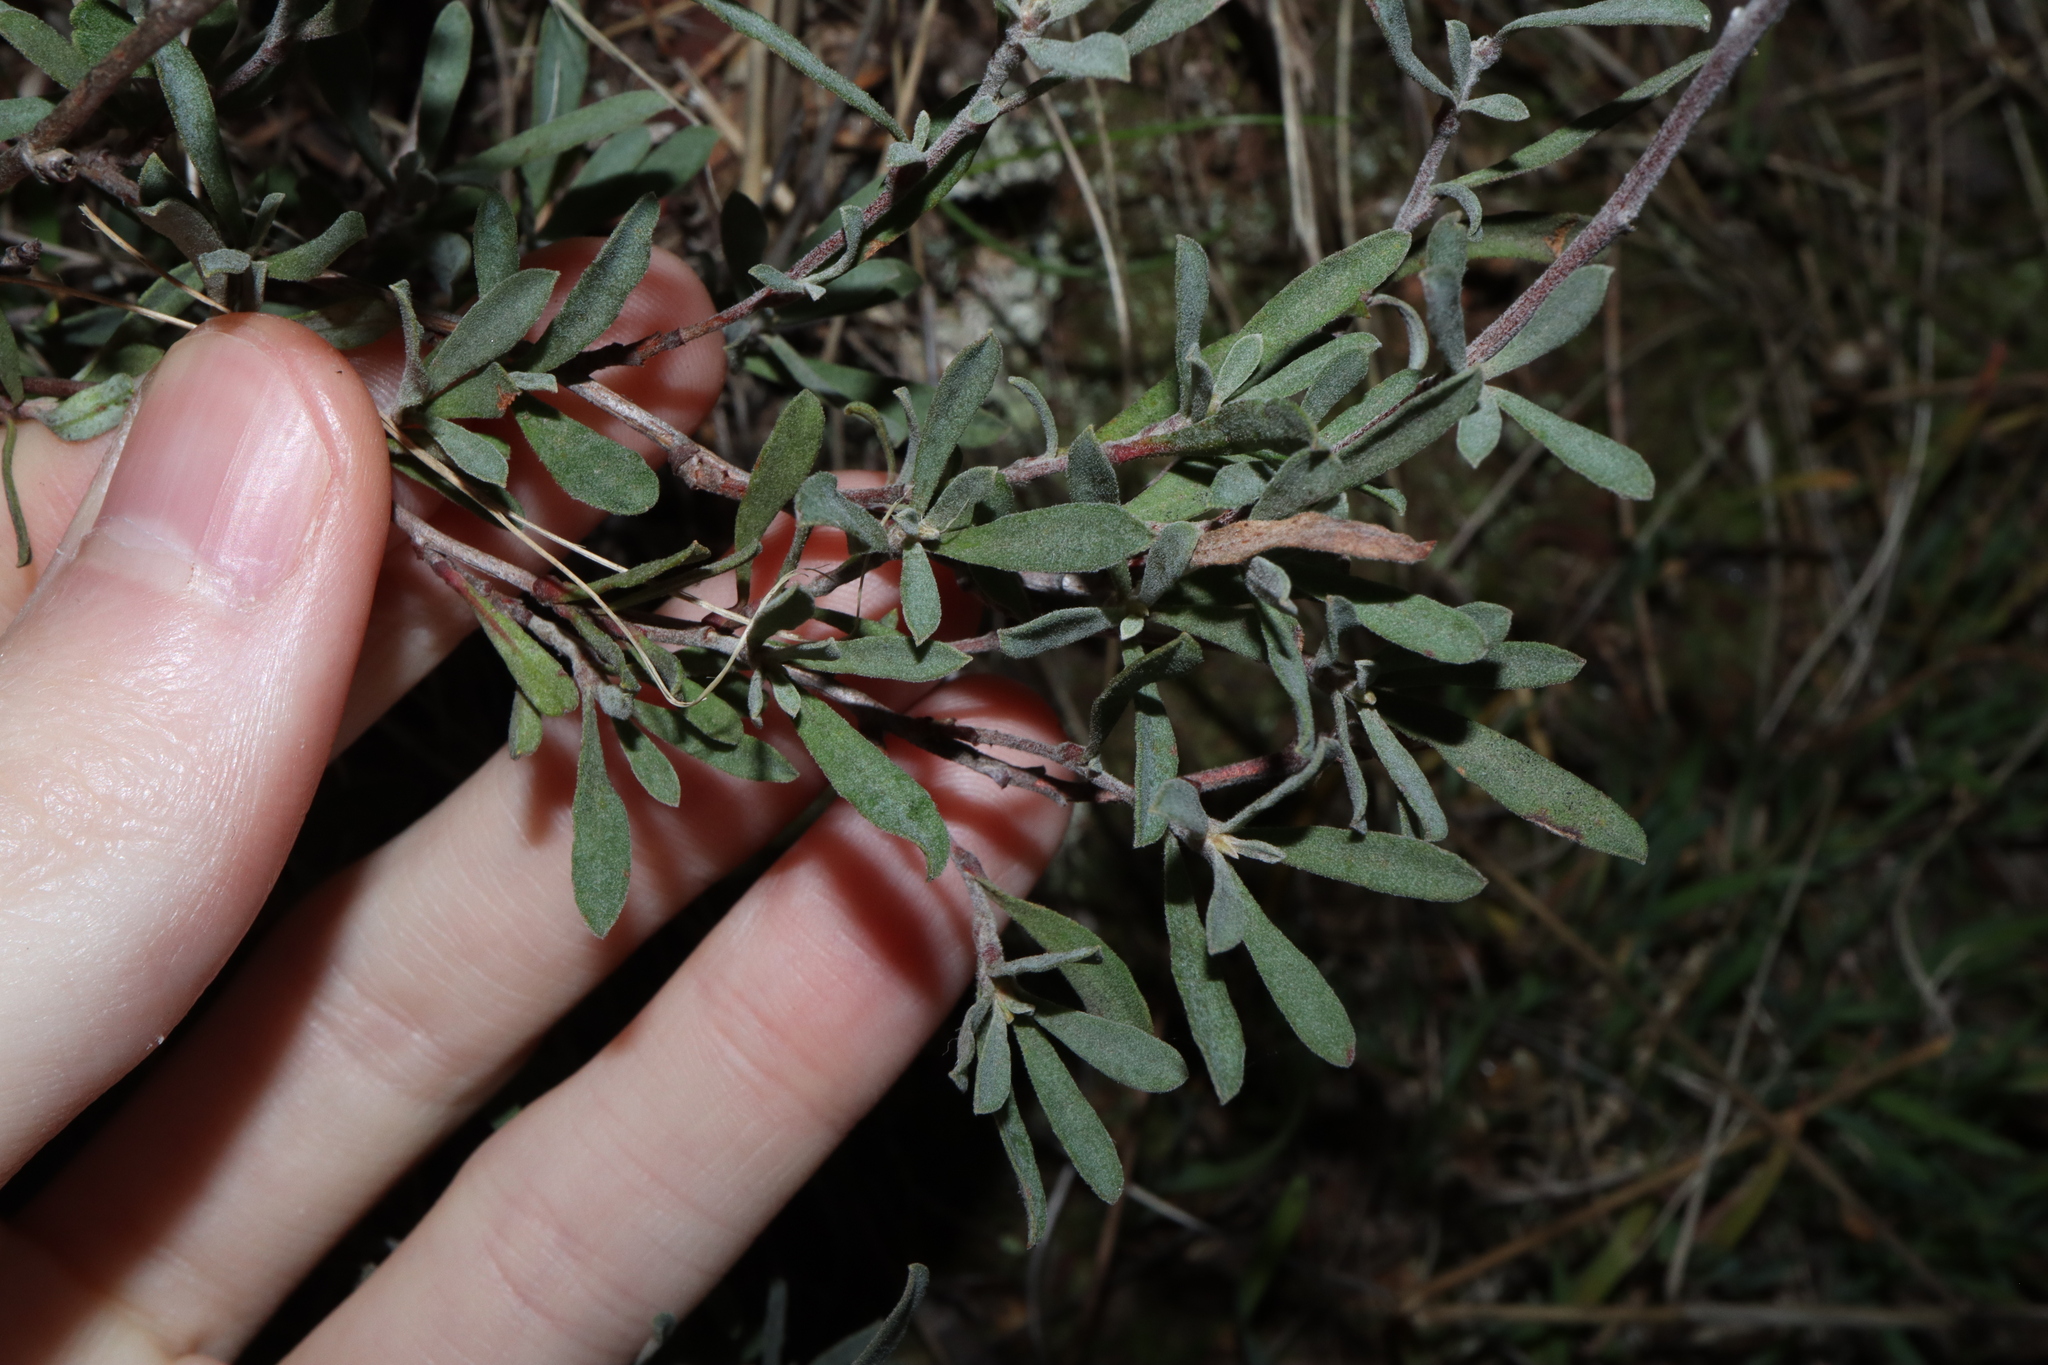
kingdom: Plantae
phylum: Tracheophyta
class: Magnoliopsida
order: Dilleniales
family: Dilleniaceae
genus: Hibbertia
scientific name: Hibbertia obtusifolia
